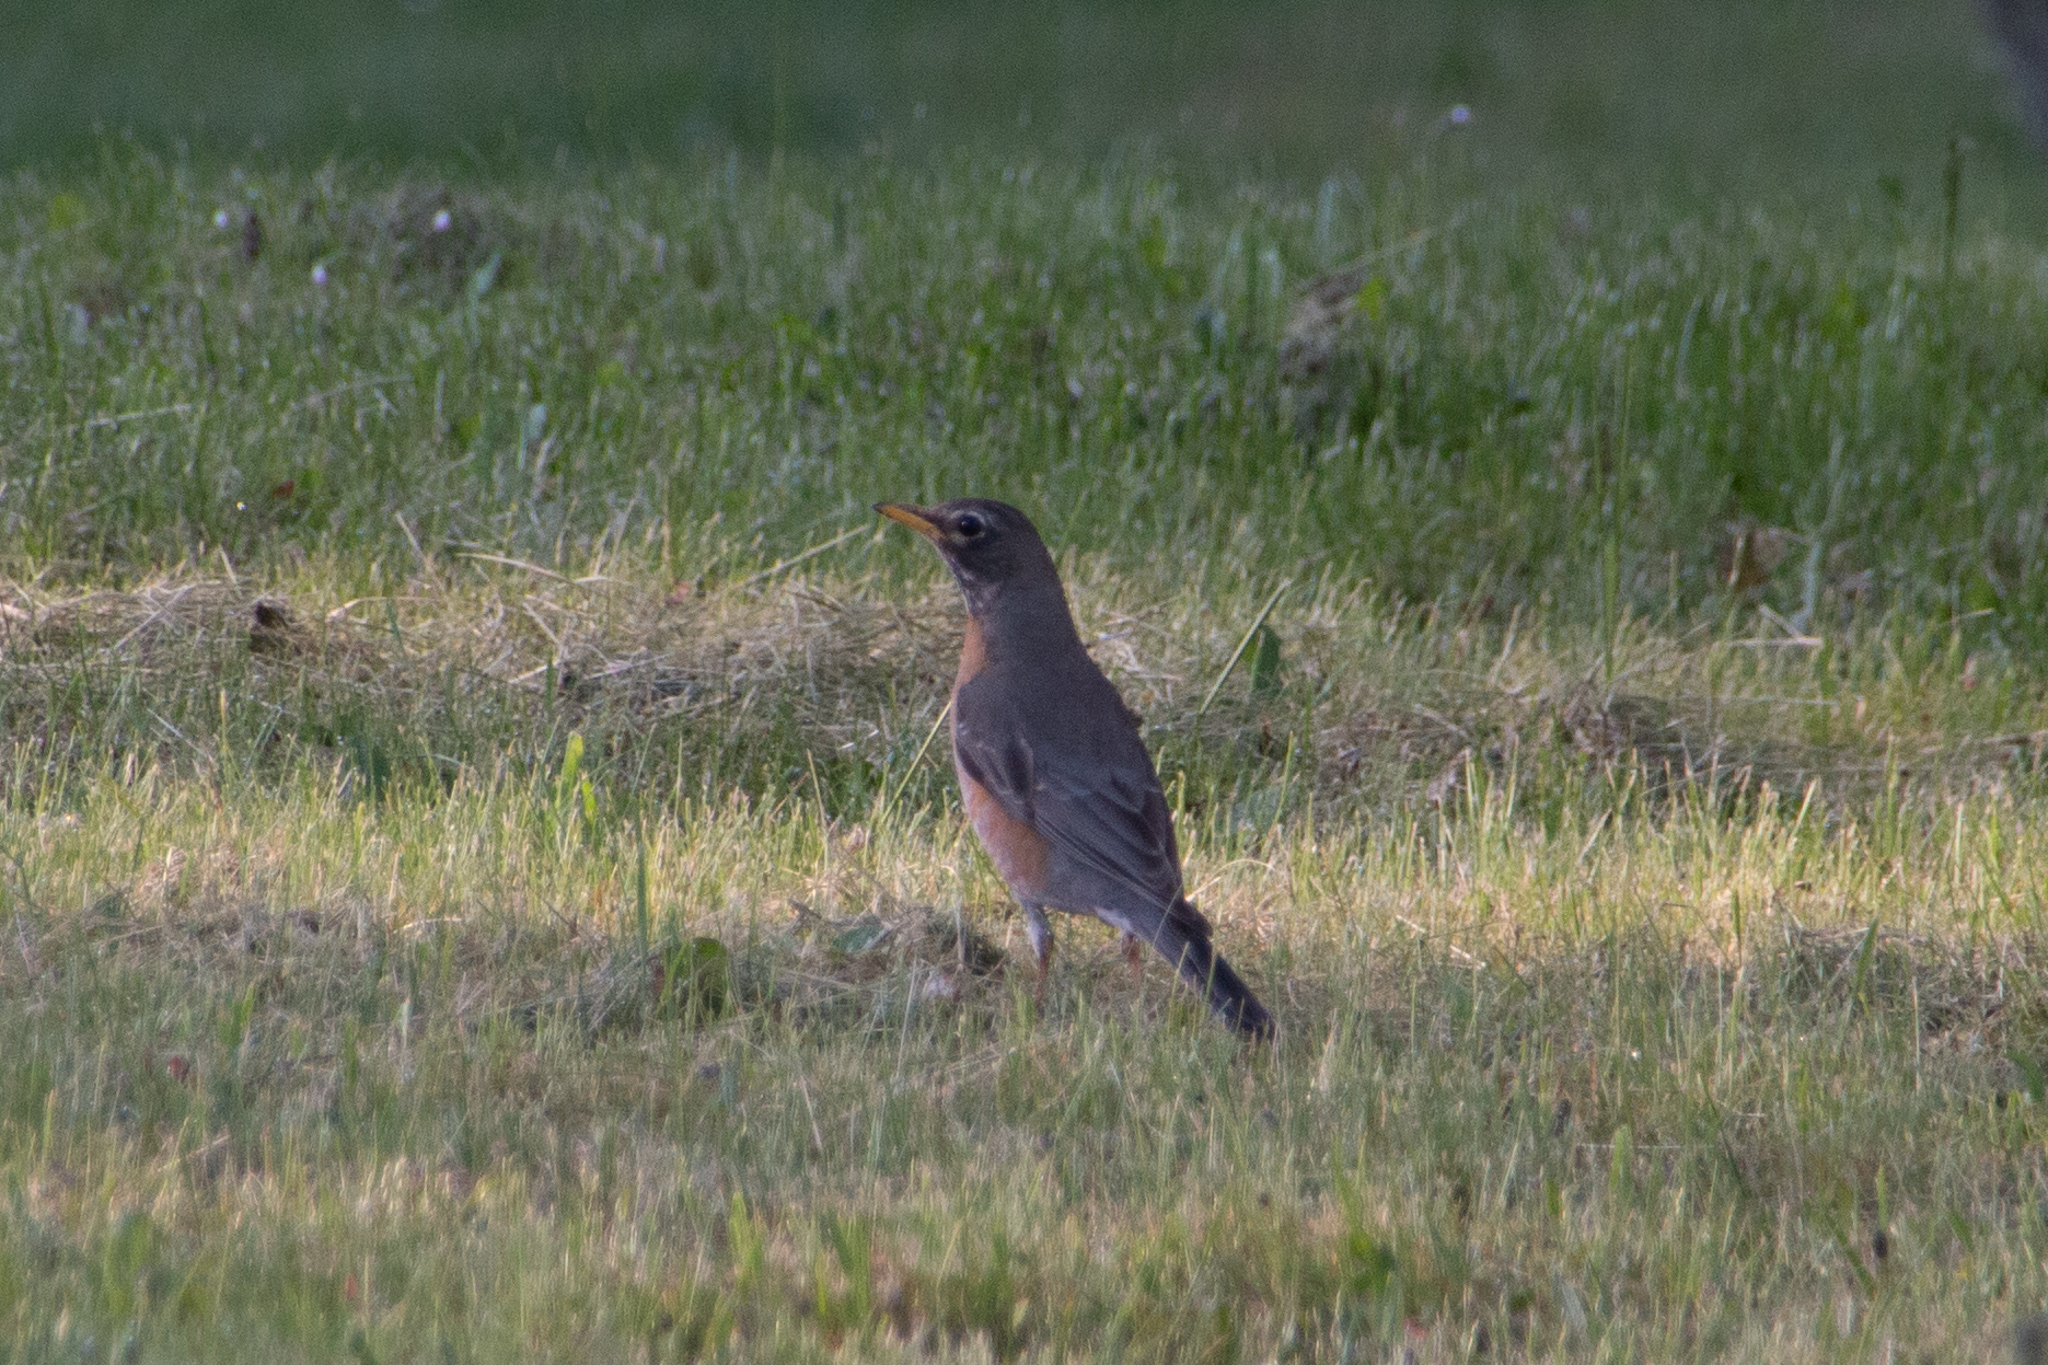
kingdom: Animalia
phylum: Chordata
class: Aves
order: Passeriformes
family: Turdidae
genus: Turdus
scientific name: Turdus migratorius
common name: American robin
